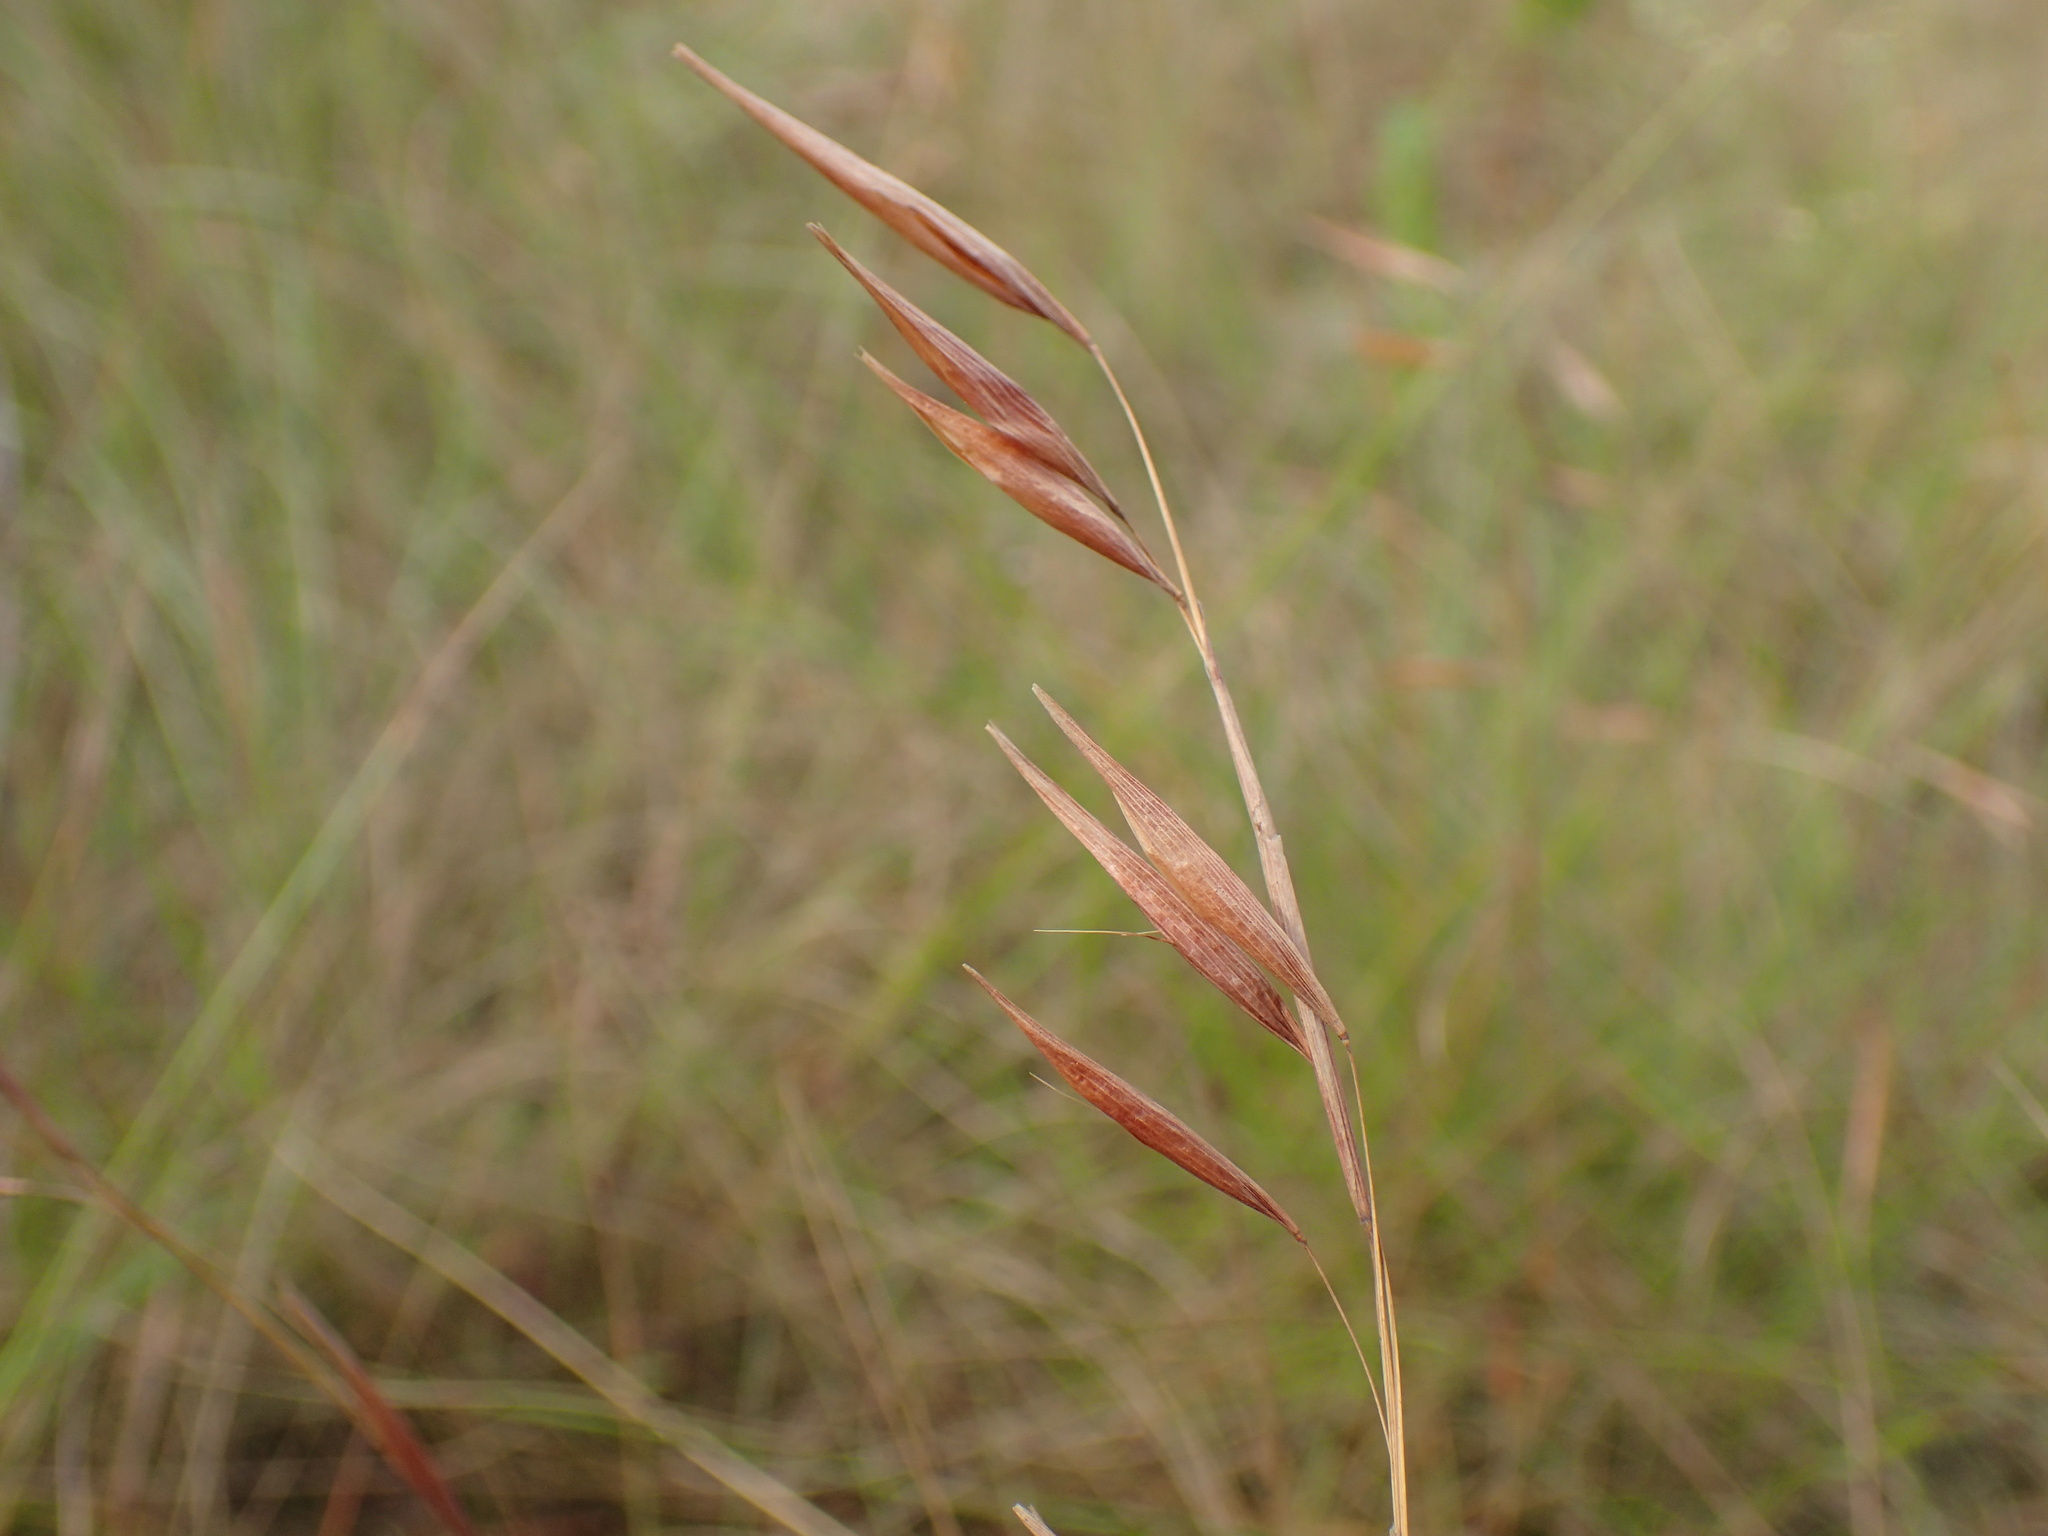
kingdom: Plantae
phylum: Tracheophyta
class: Liliopsida
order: Poales
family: Poaceae
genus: Monocymbium
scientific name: Monocymbium ceresiiforme
